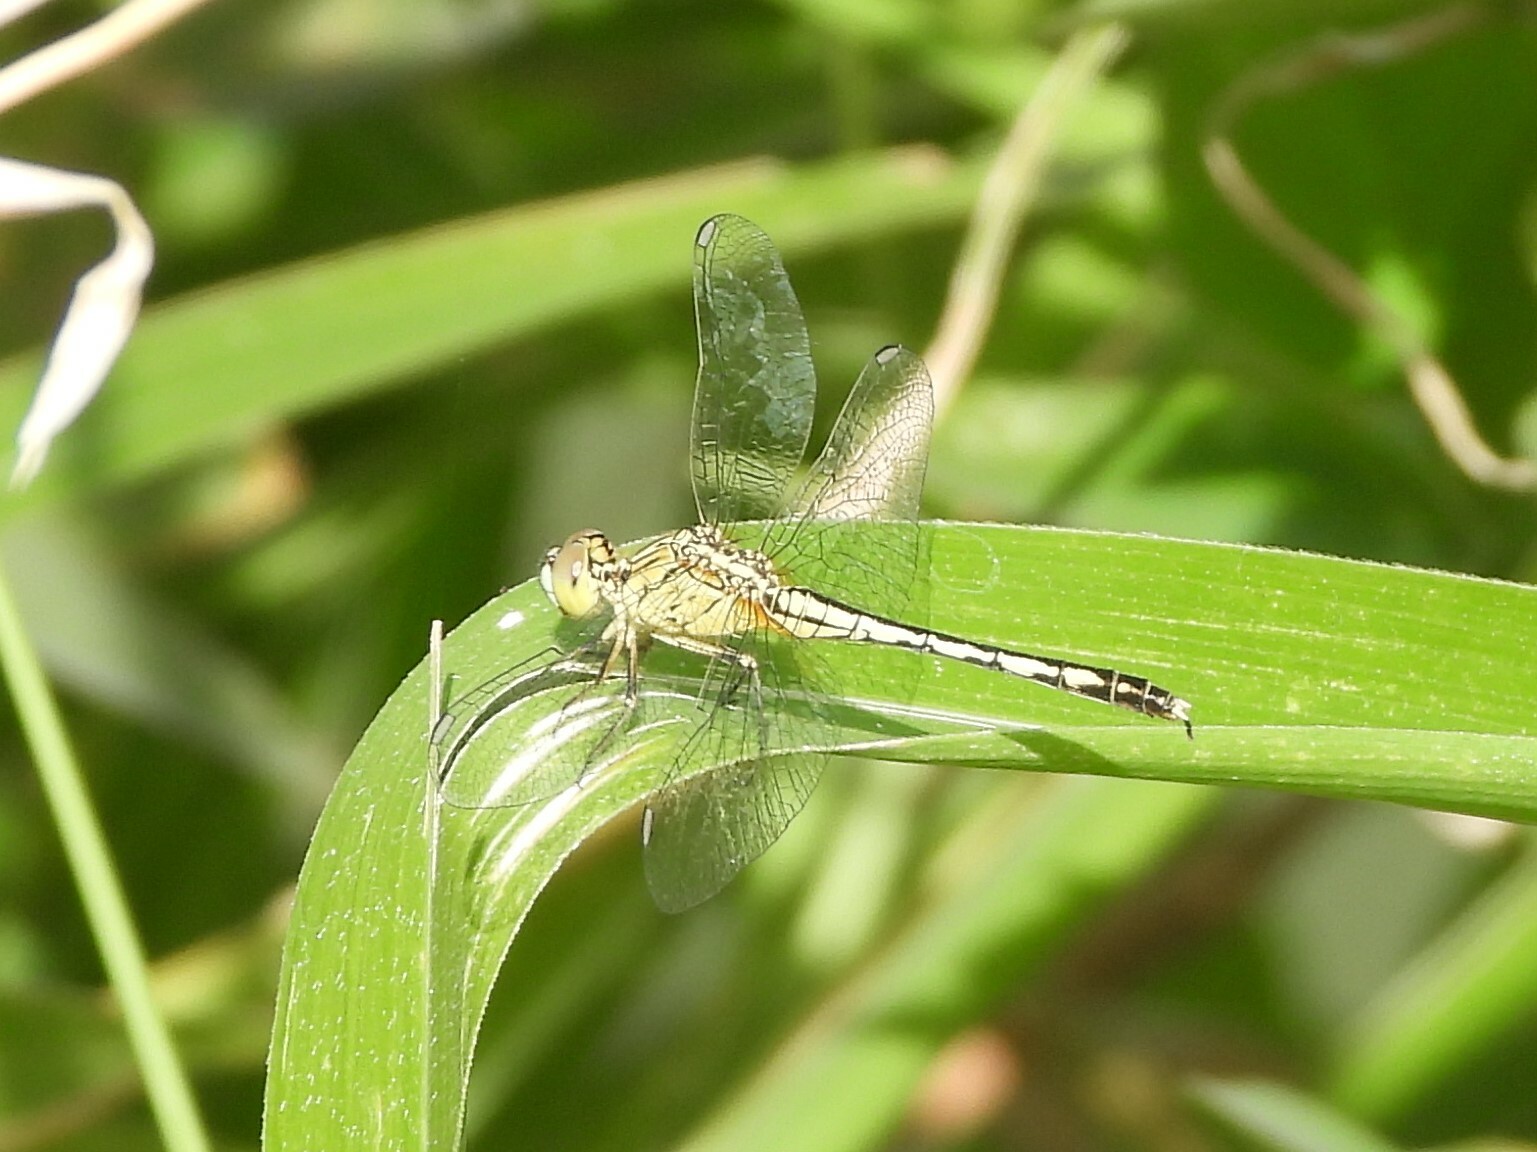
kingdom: Animalia
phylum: Arthropoda
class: Insecta
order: Odonata
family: Libellulidae
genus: Diplacodes
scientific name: Diplacodes trivialis
